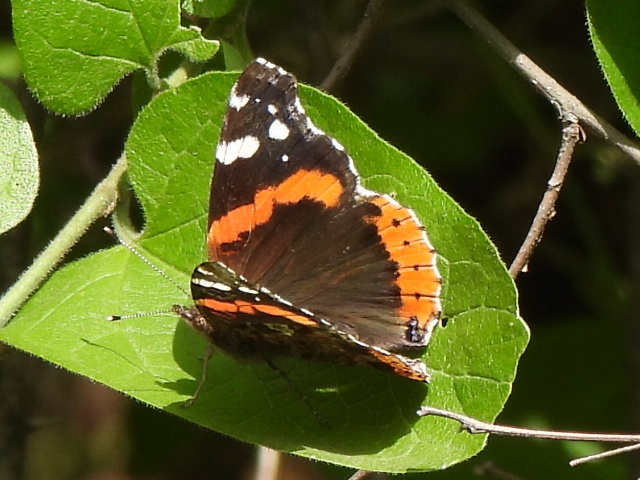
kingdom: Animalia
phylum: Arthropoda
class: Insecta
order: Lepidoptera
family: Nymphalidae
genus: Vanessa
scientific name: Vanessa atalanta
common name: Red admiral
